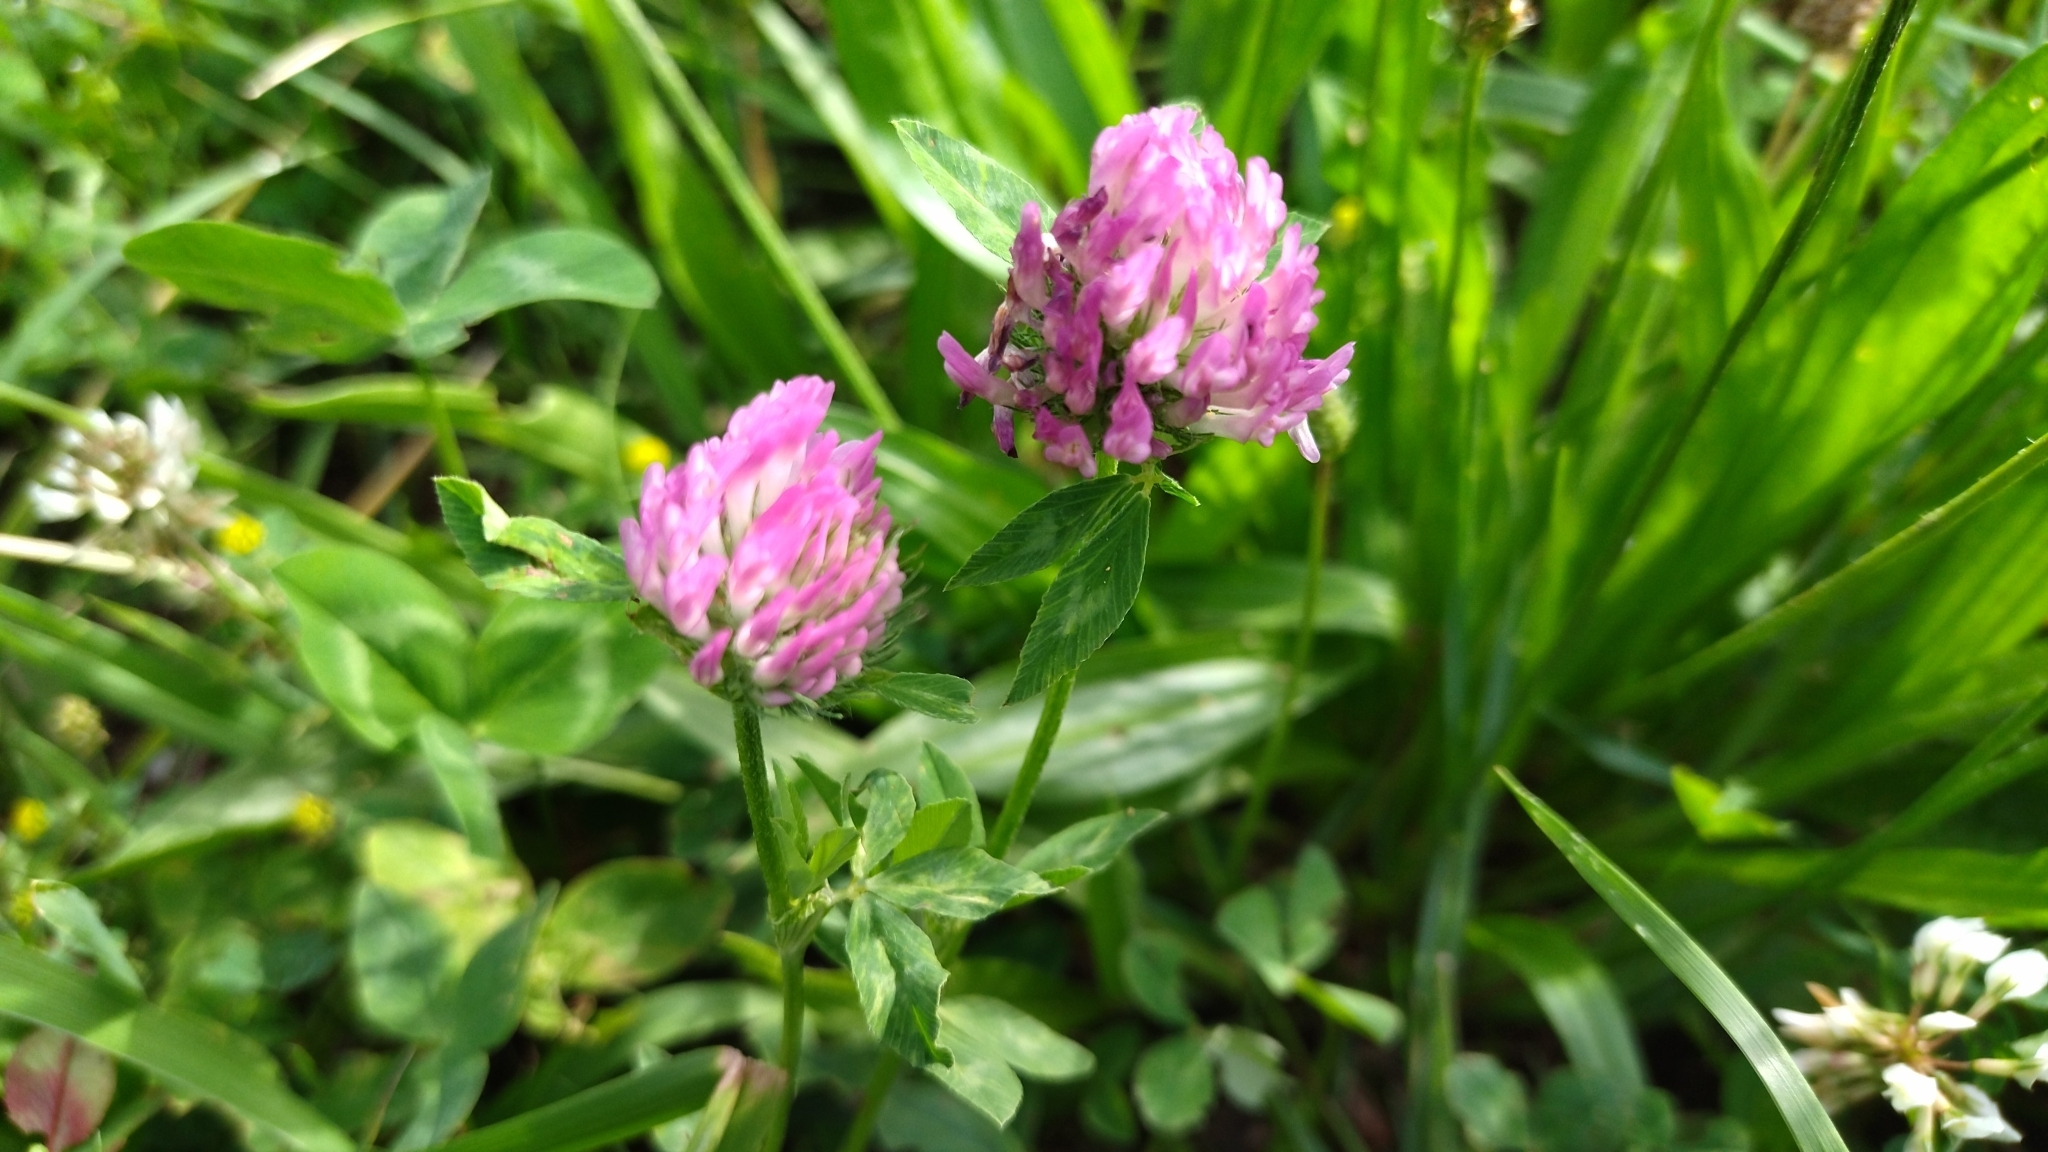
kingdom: Plantae
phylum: Tracheophyta
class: Magnoliopsida
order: Fabales
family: Fabaceae
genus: Trifolium
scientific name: Trifolium pratense
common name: Red clover
